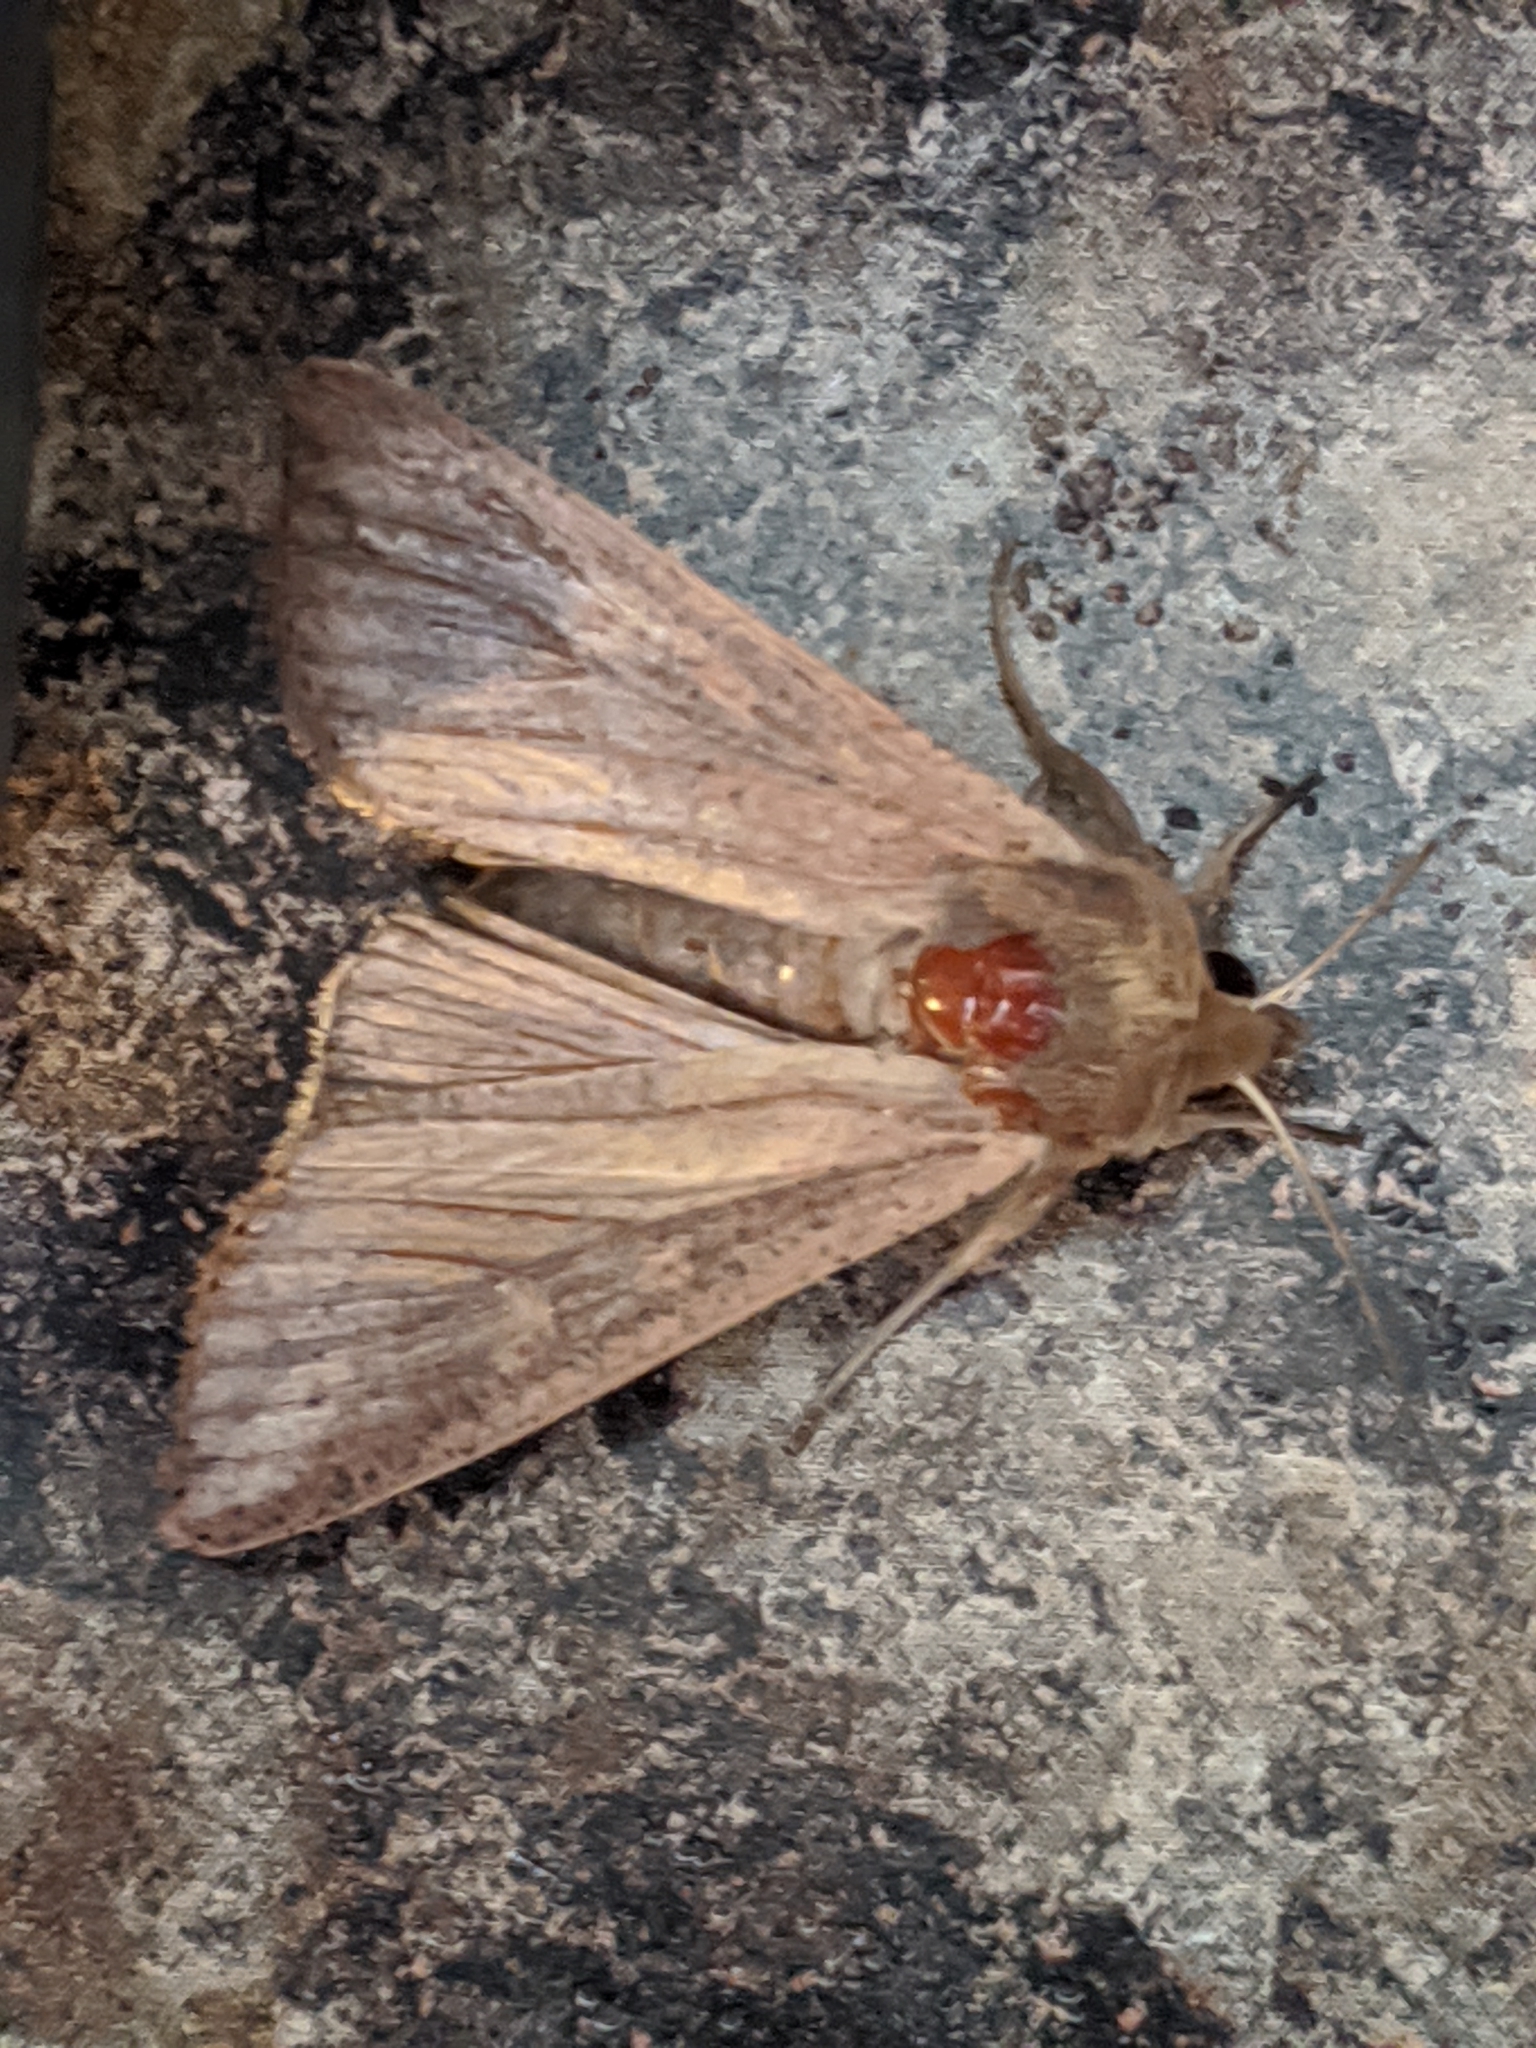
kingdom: Animalia
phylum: Arthropoda
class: Insecta
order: Lepidoptera
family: Noctuidae
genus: Mythimna
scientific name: Mythimna unipuncta
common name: White-speck
